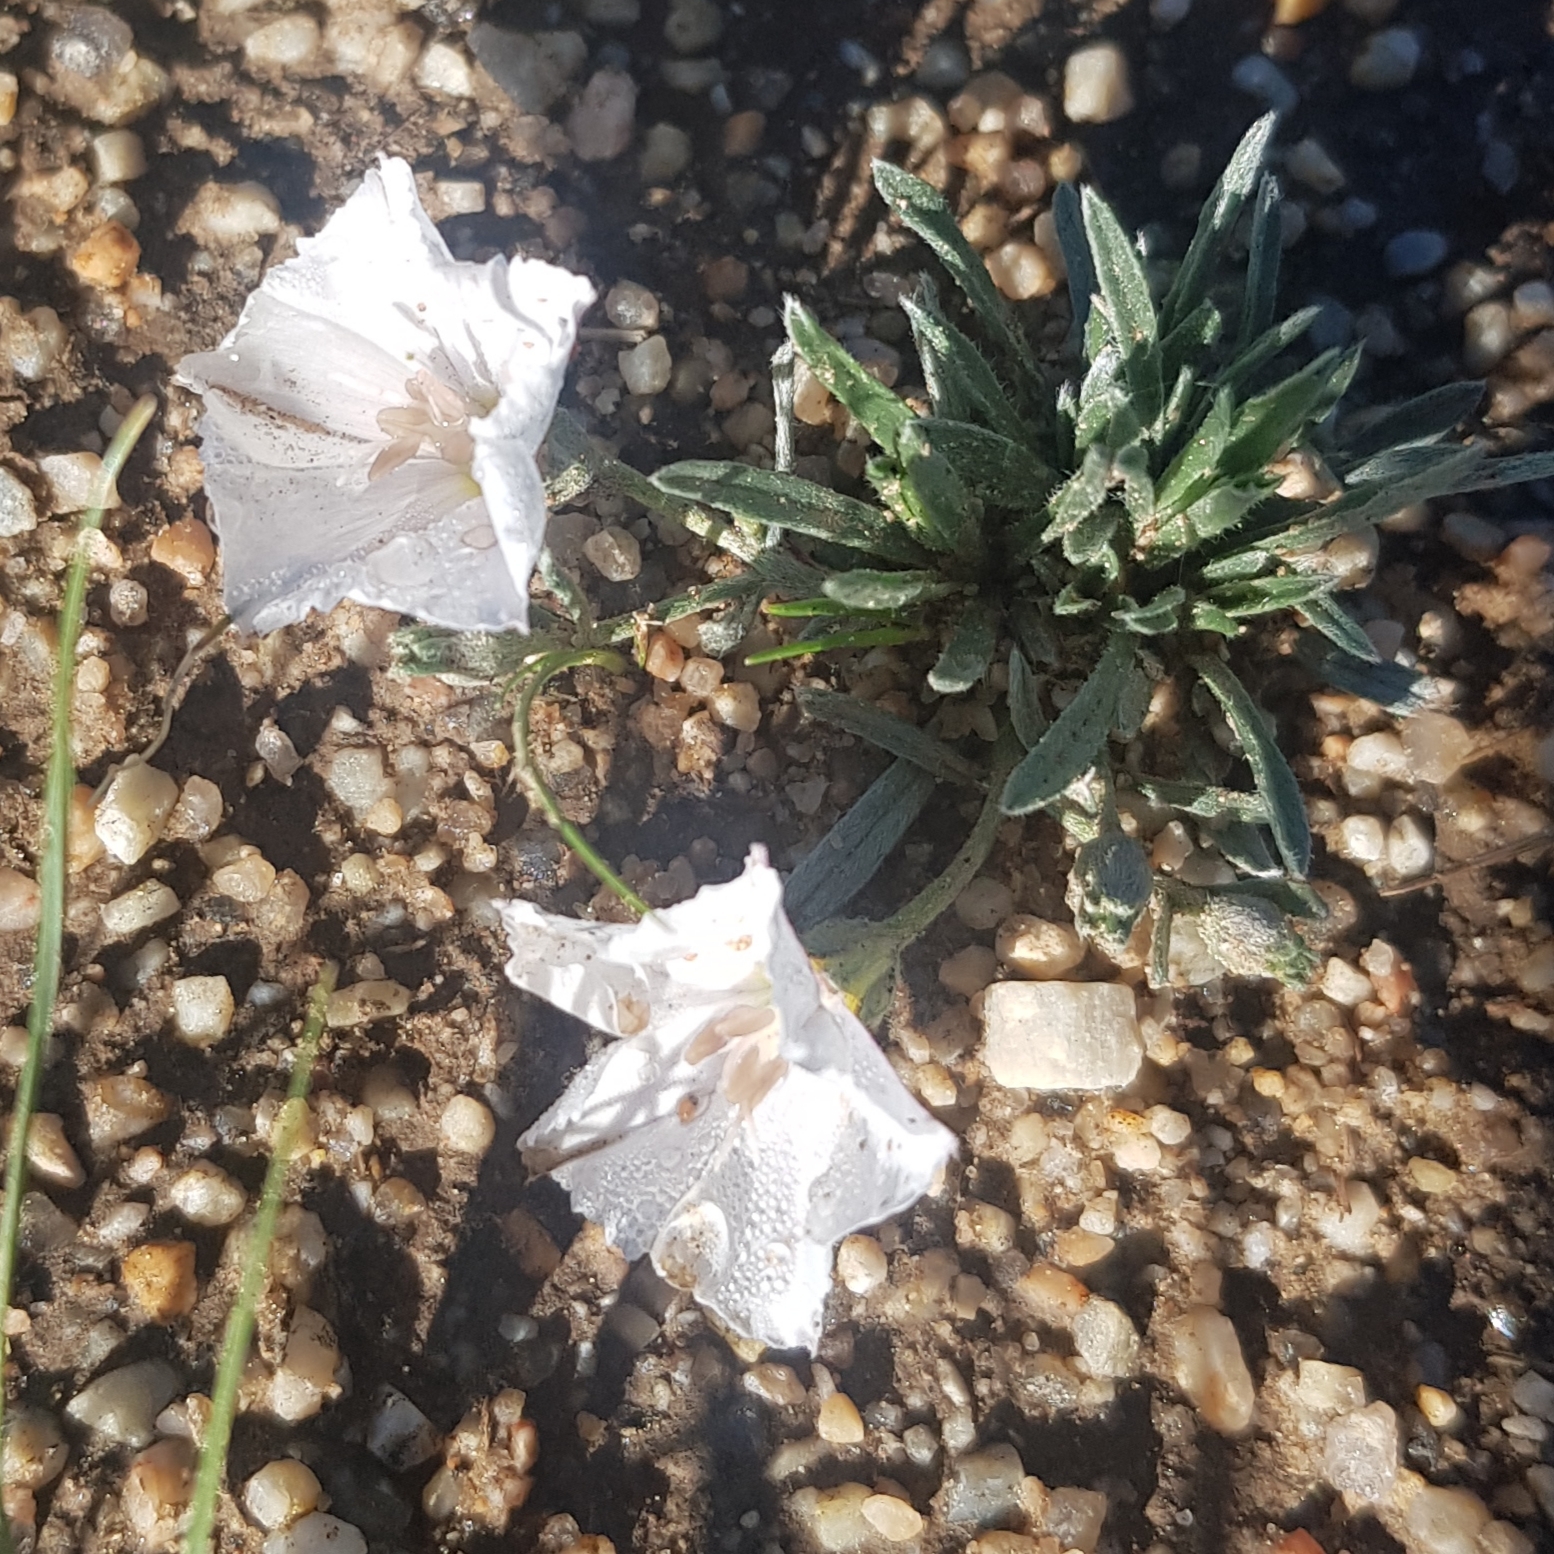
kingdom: Plantae
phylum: Tracheophyta
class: Magnoliopsida
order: Solanales
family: Convolvulaceae
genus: Convolvulus
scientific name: Convolvulus ammannii
